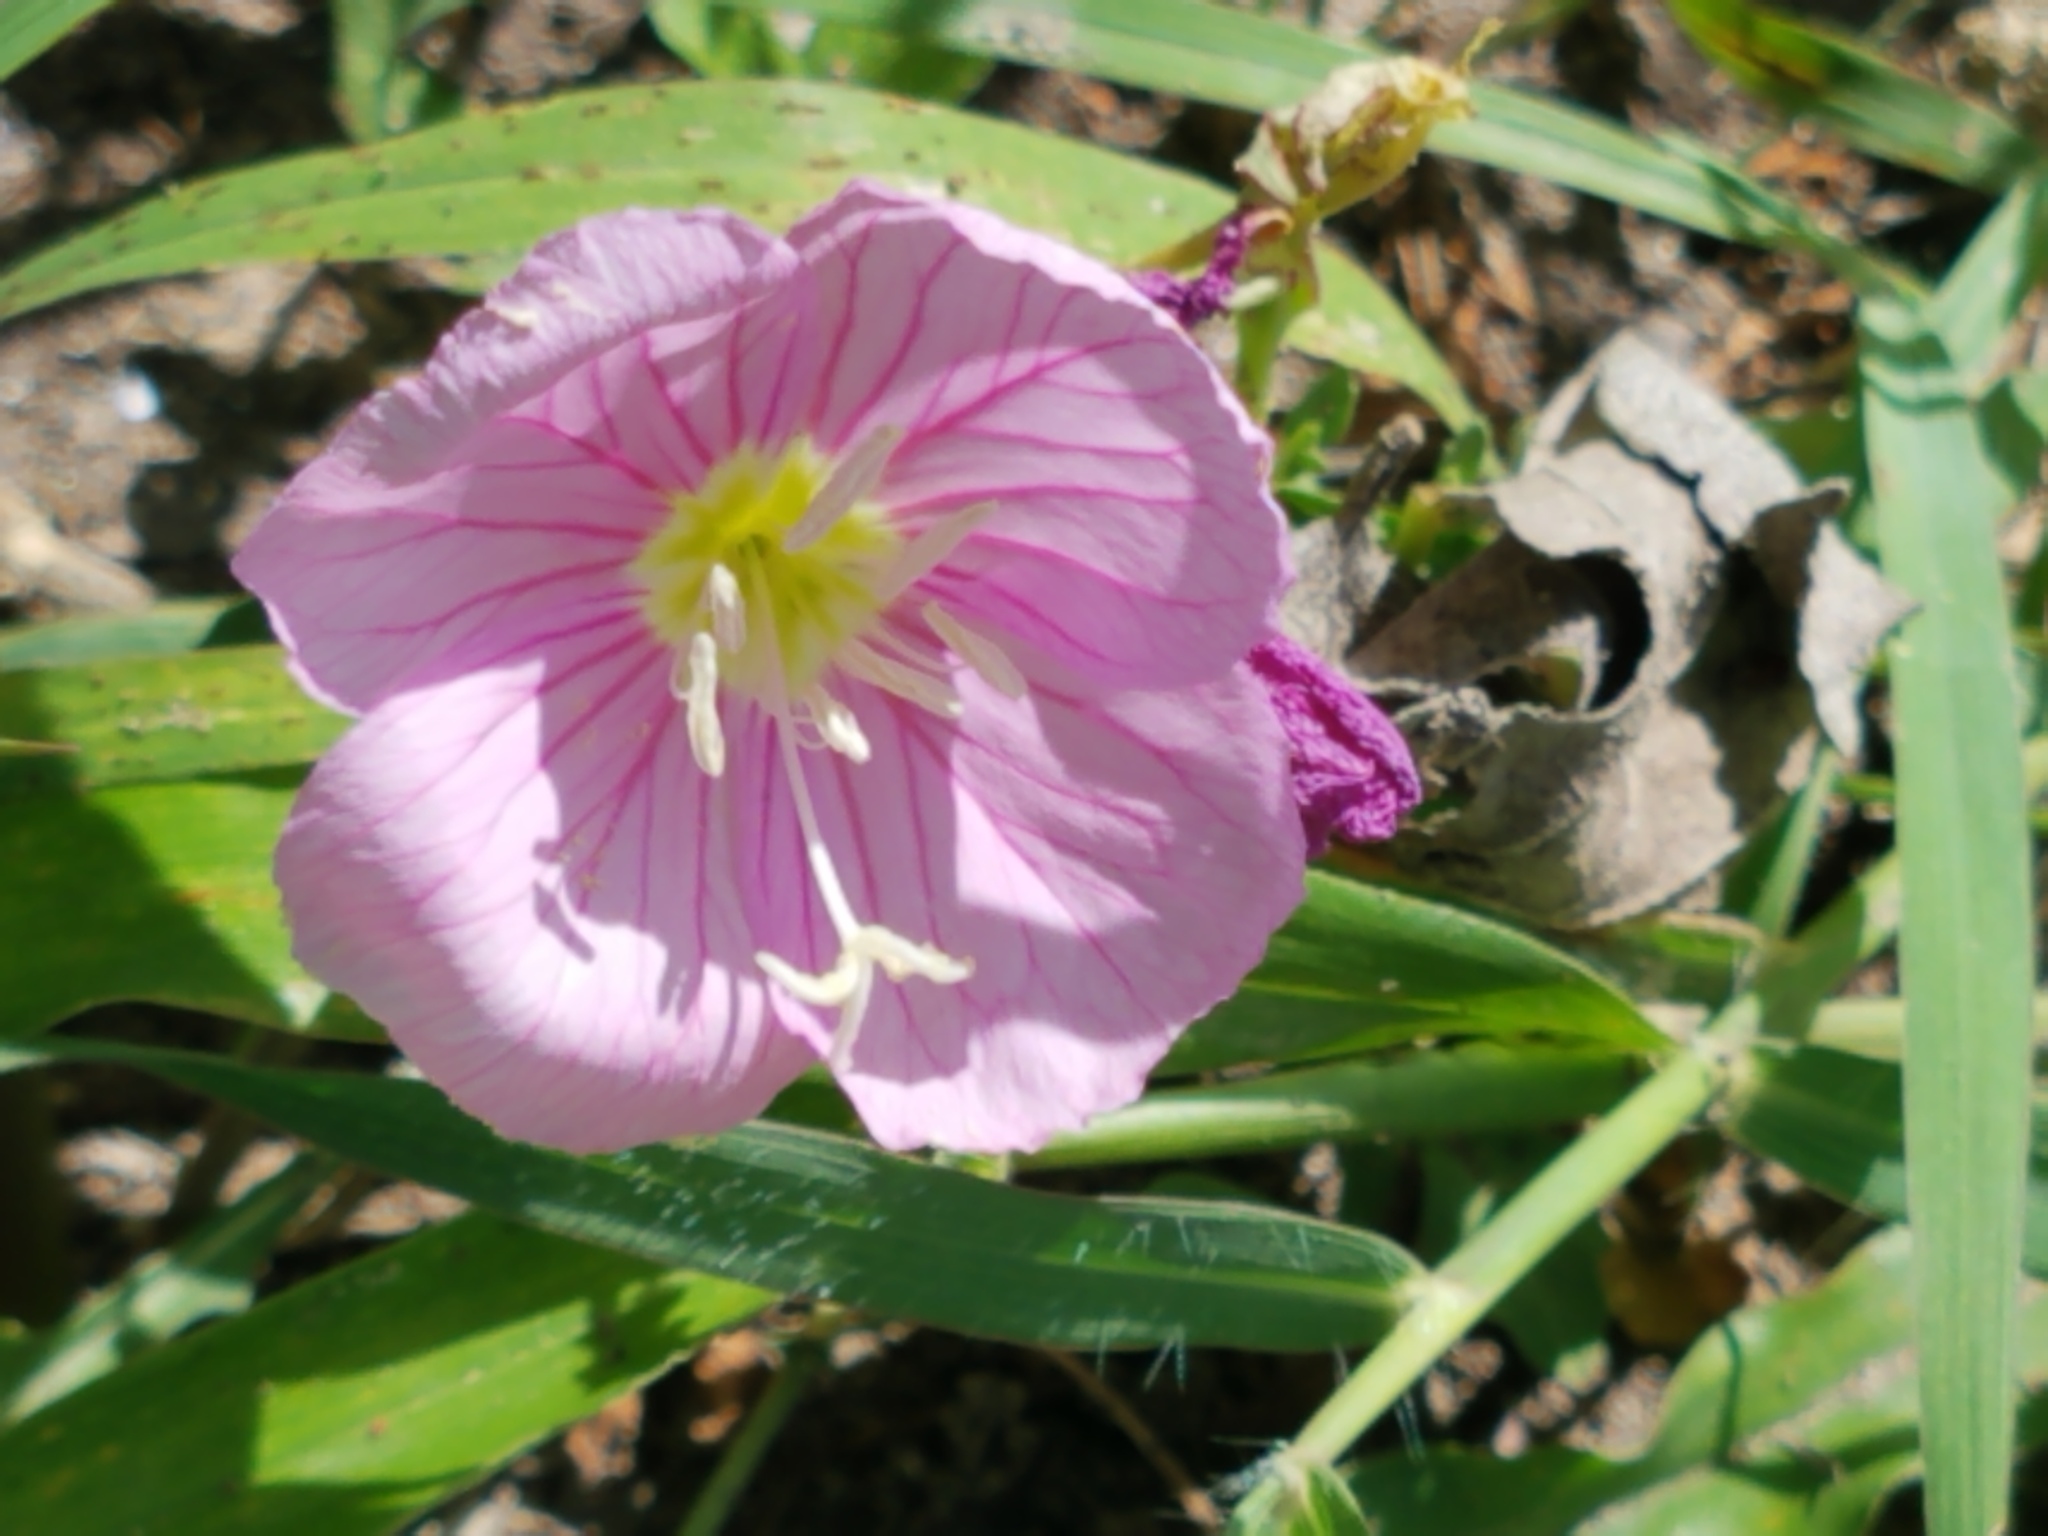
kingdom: Plantae
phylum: Tracheophyta
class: Magnoliopsida
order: Myrtales
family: Onagraceae
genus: Oenothera
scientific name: Oenothera speciosa
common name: White evening-primrose
